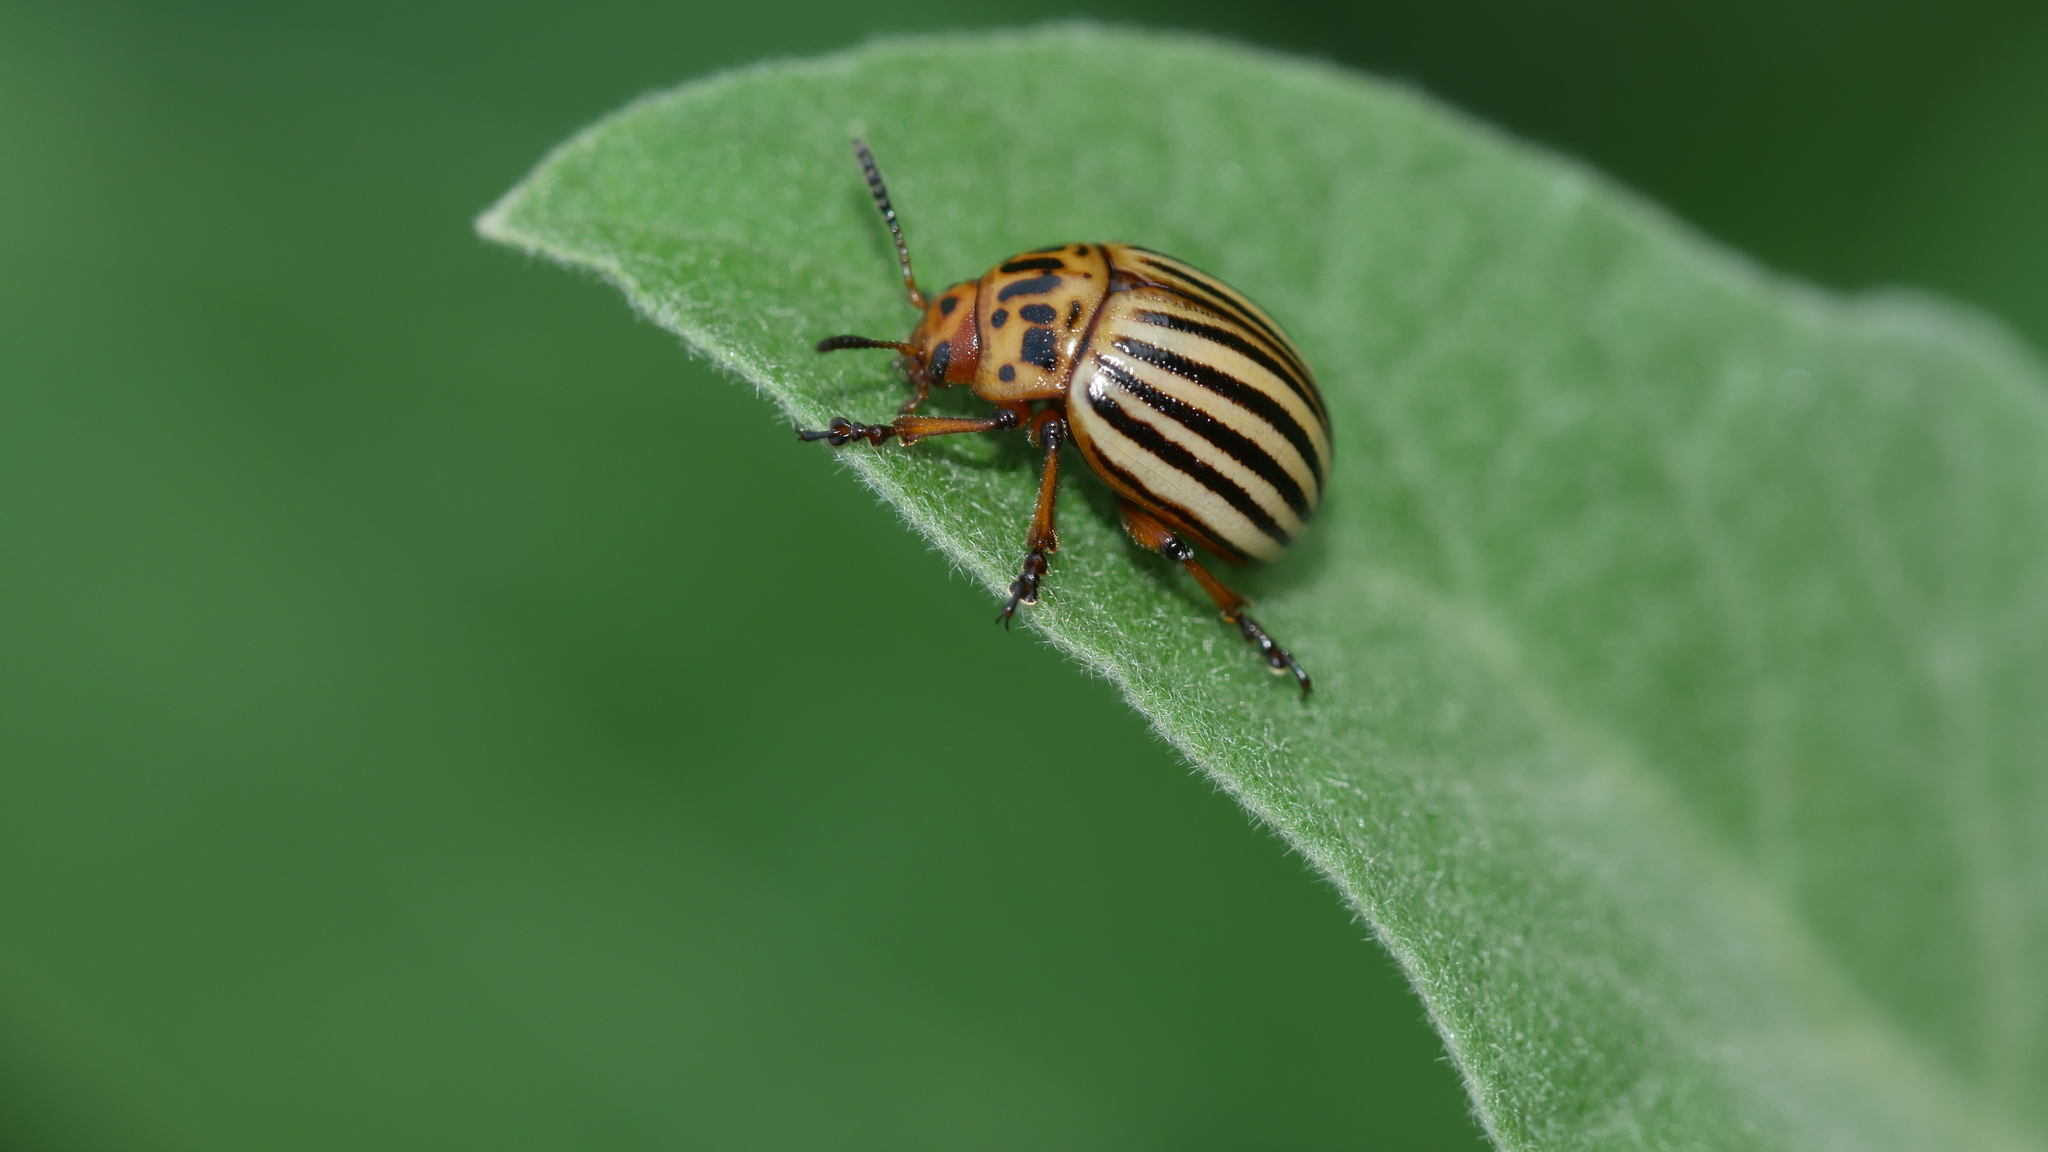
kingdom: Animalia
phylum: Arthropoda
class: Insecta
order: Coleoptera
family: Chrysomelidae
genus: Leptinotarsa
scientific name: Leptinotarsa decemlineata
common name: Colorado potato beetle
